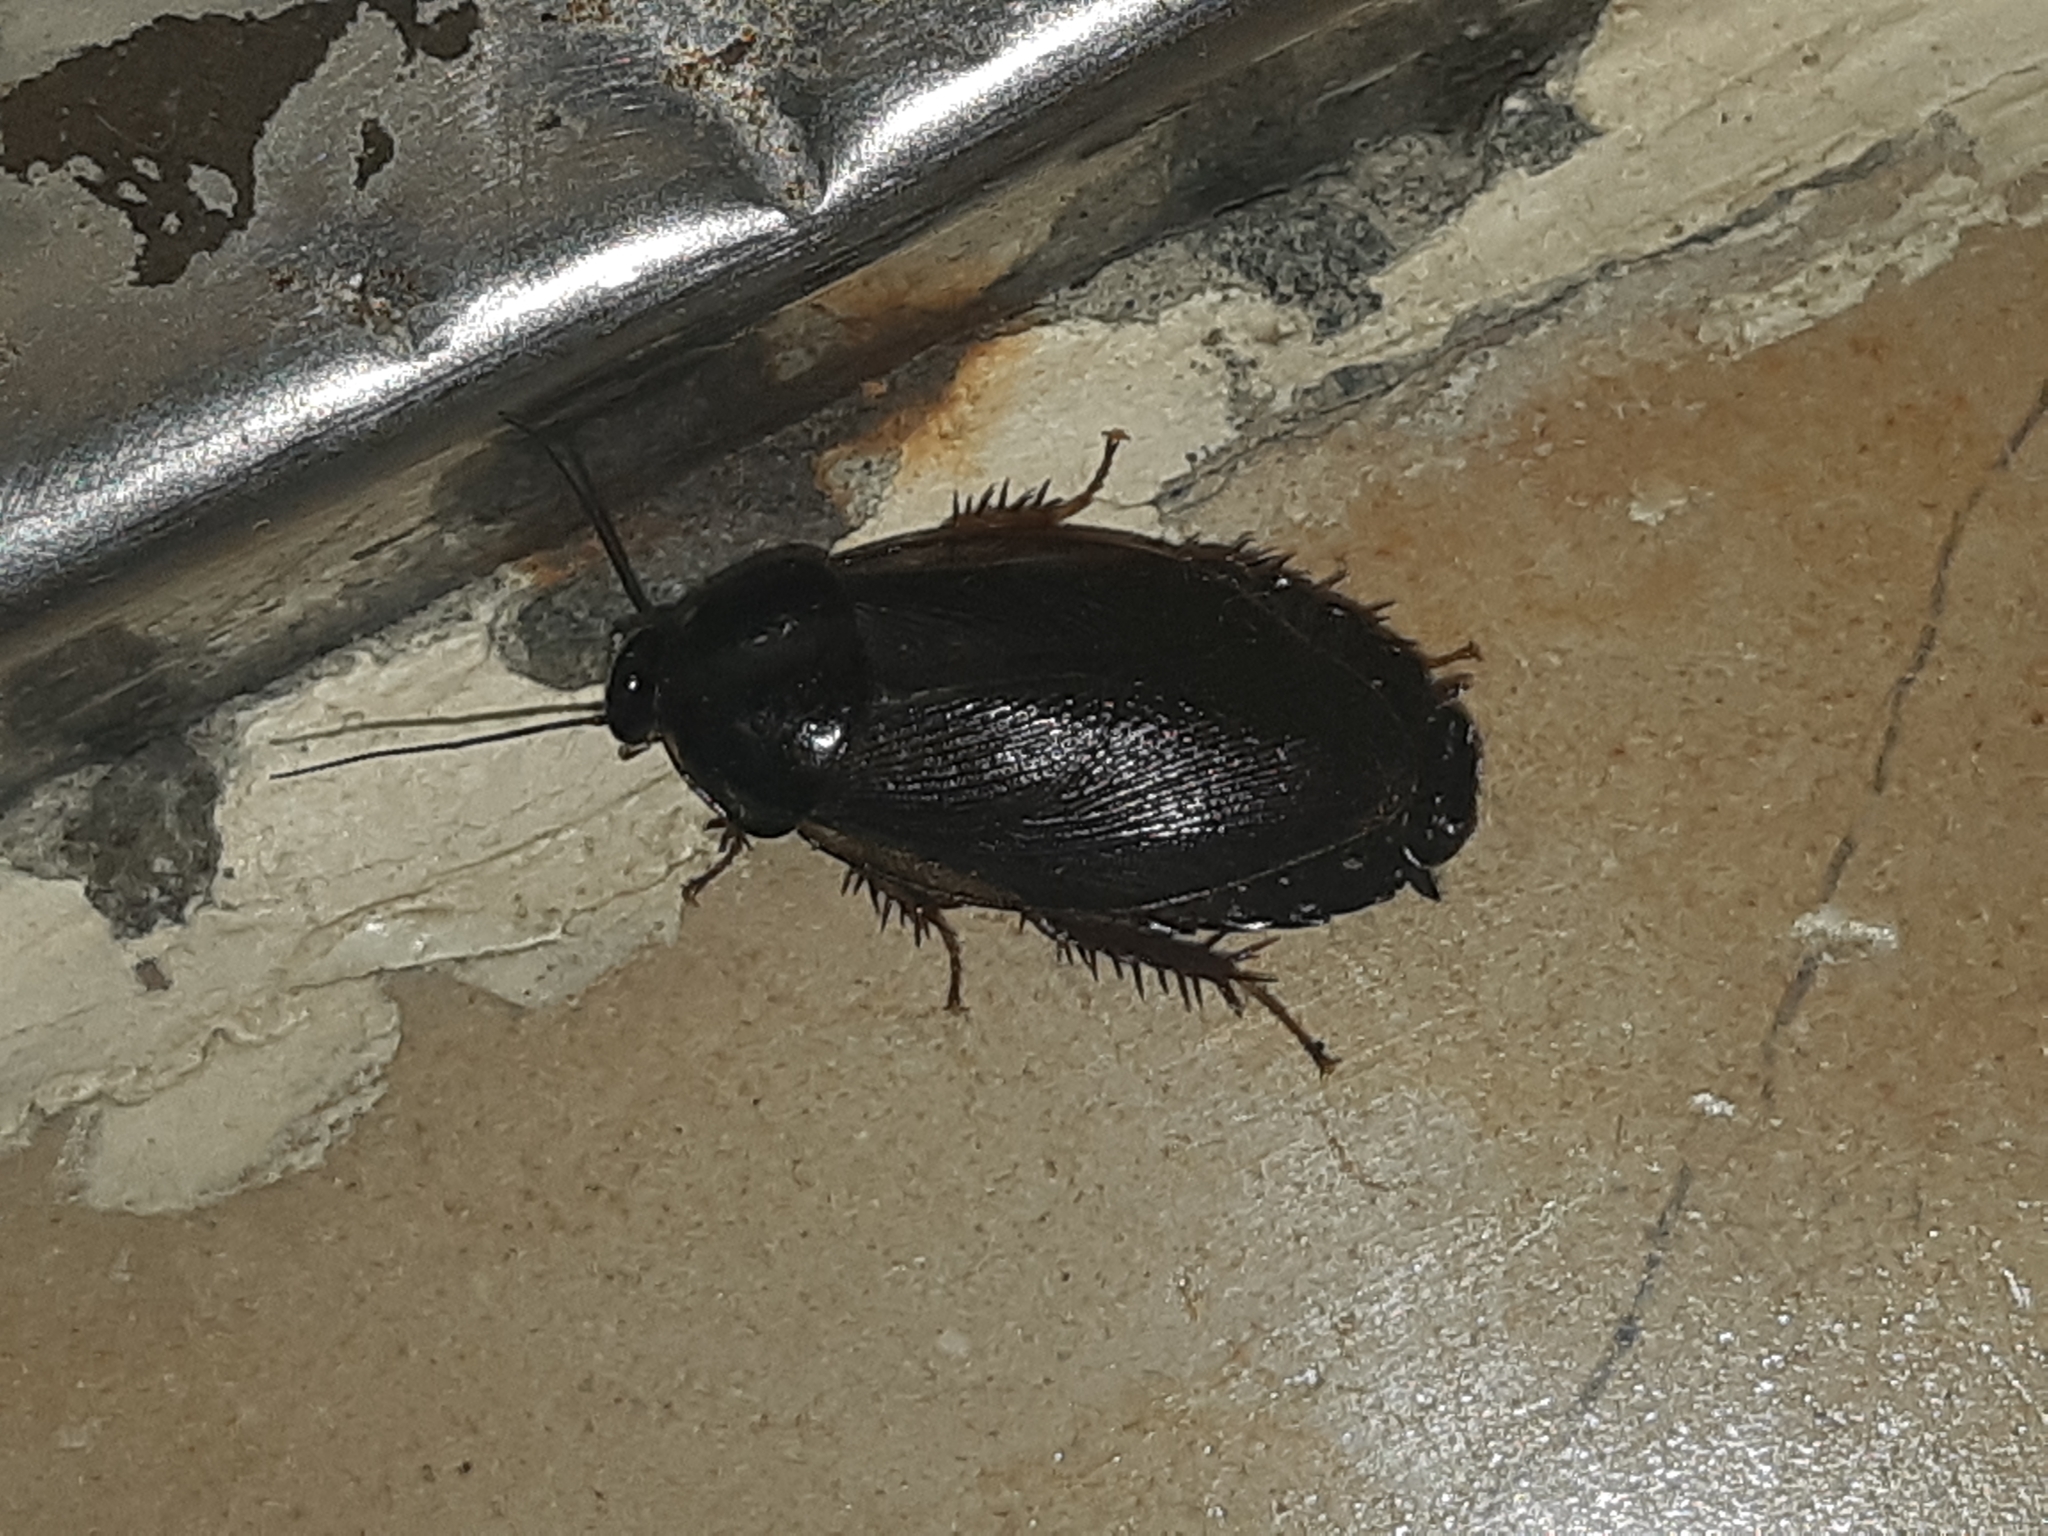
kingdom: Animalia
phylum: Arthropoda
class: Insecta
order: Blattodea
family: Blaberidae
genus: Pycnoscelus
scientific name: Pycnoscelus surinamensis
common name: Surinam cockroach
